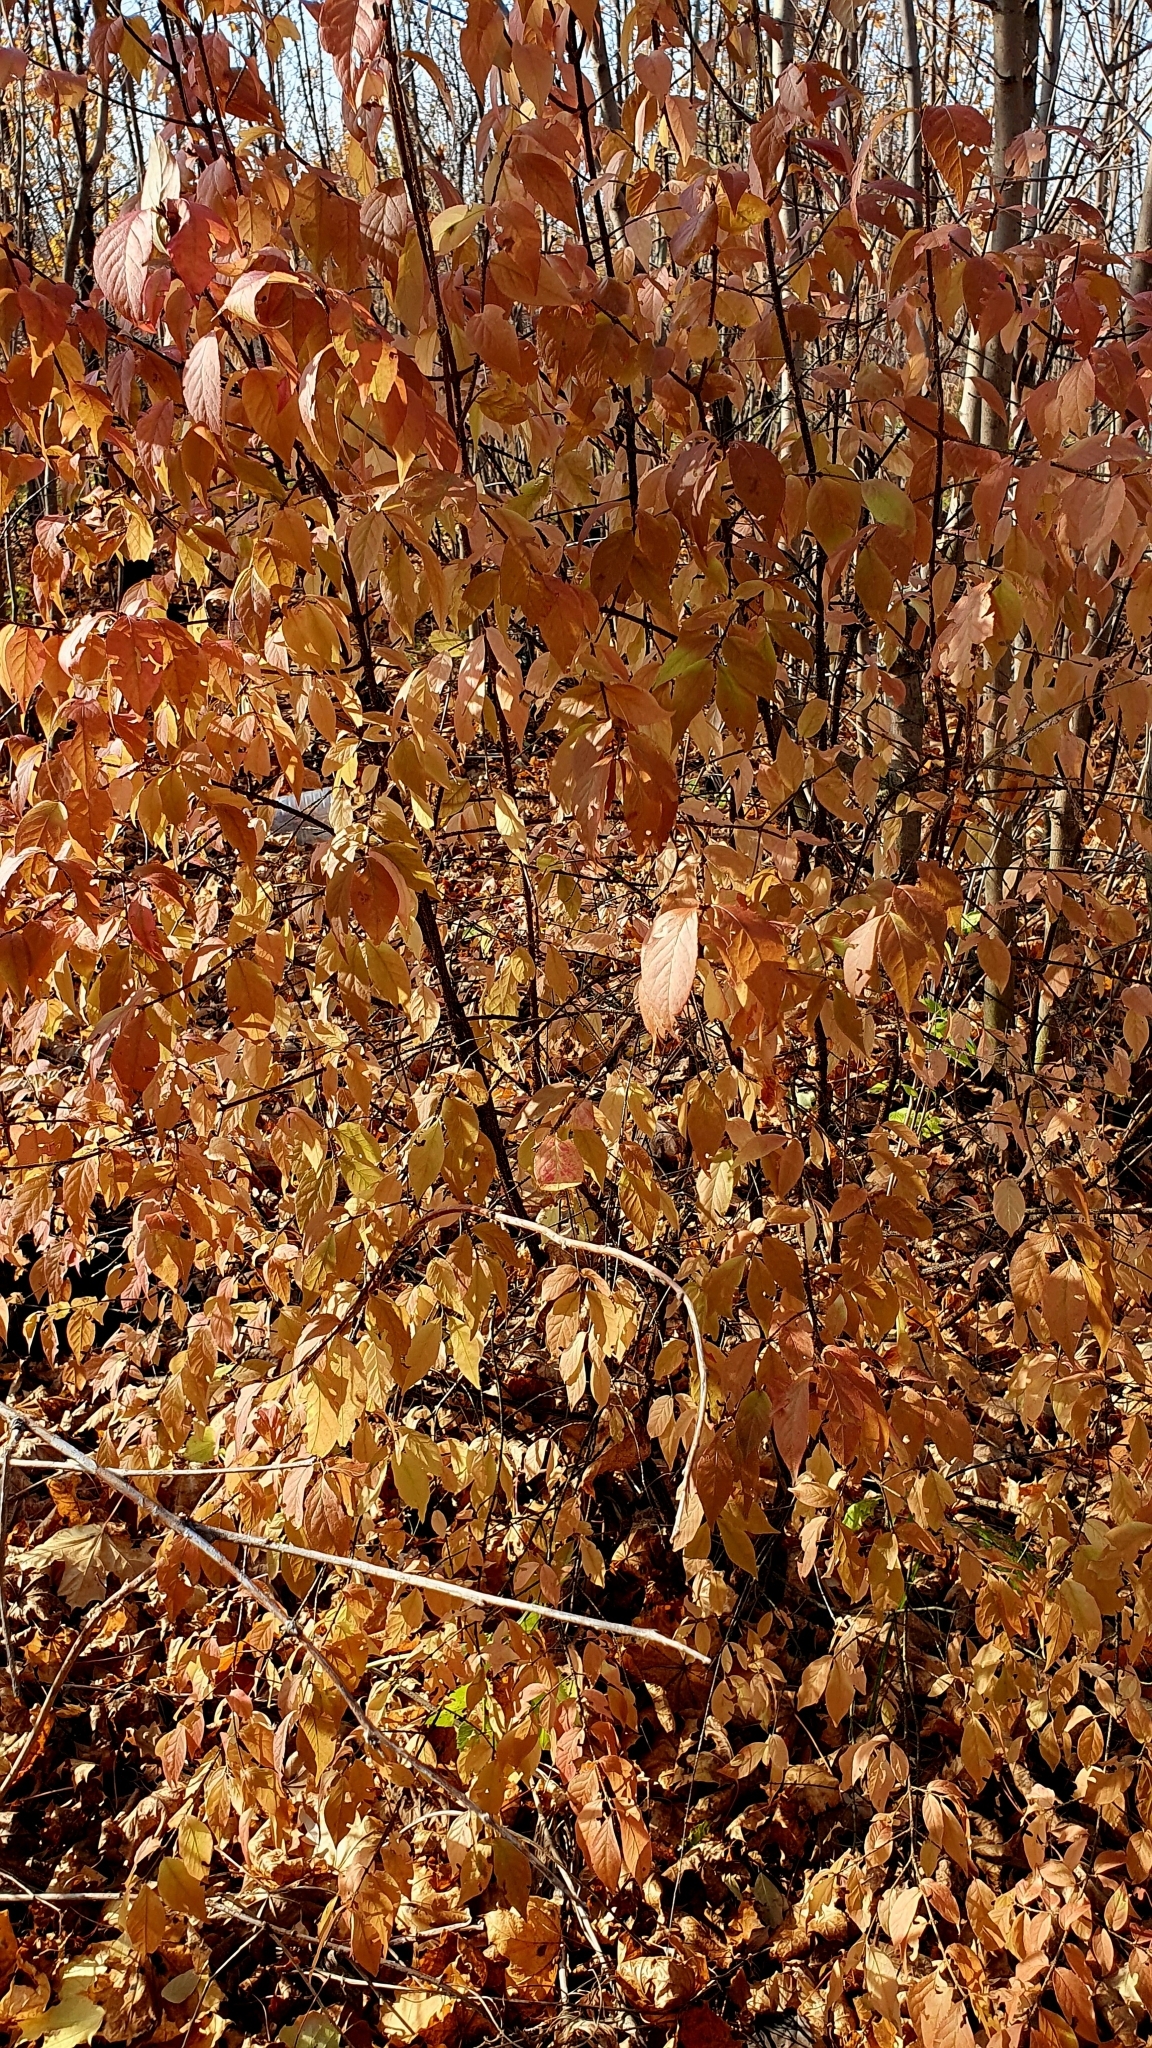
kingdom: Plantae
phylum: Tracheophyta
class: Magnoliopsida
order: Celastrales
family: Celastraceae
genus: Euonymus
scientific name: Euonymus verrucosus
